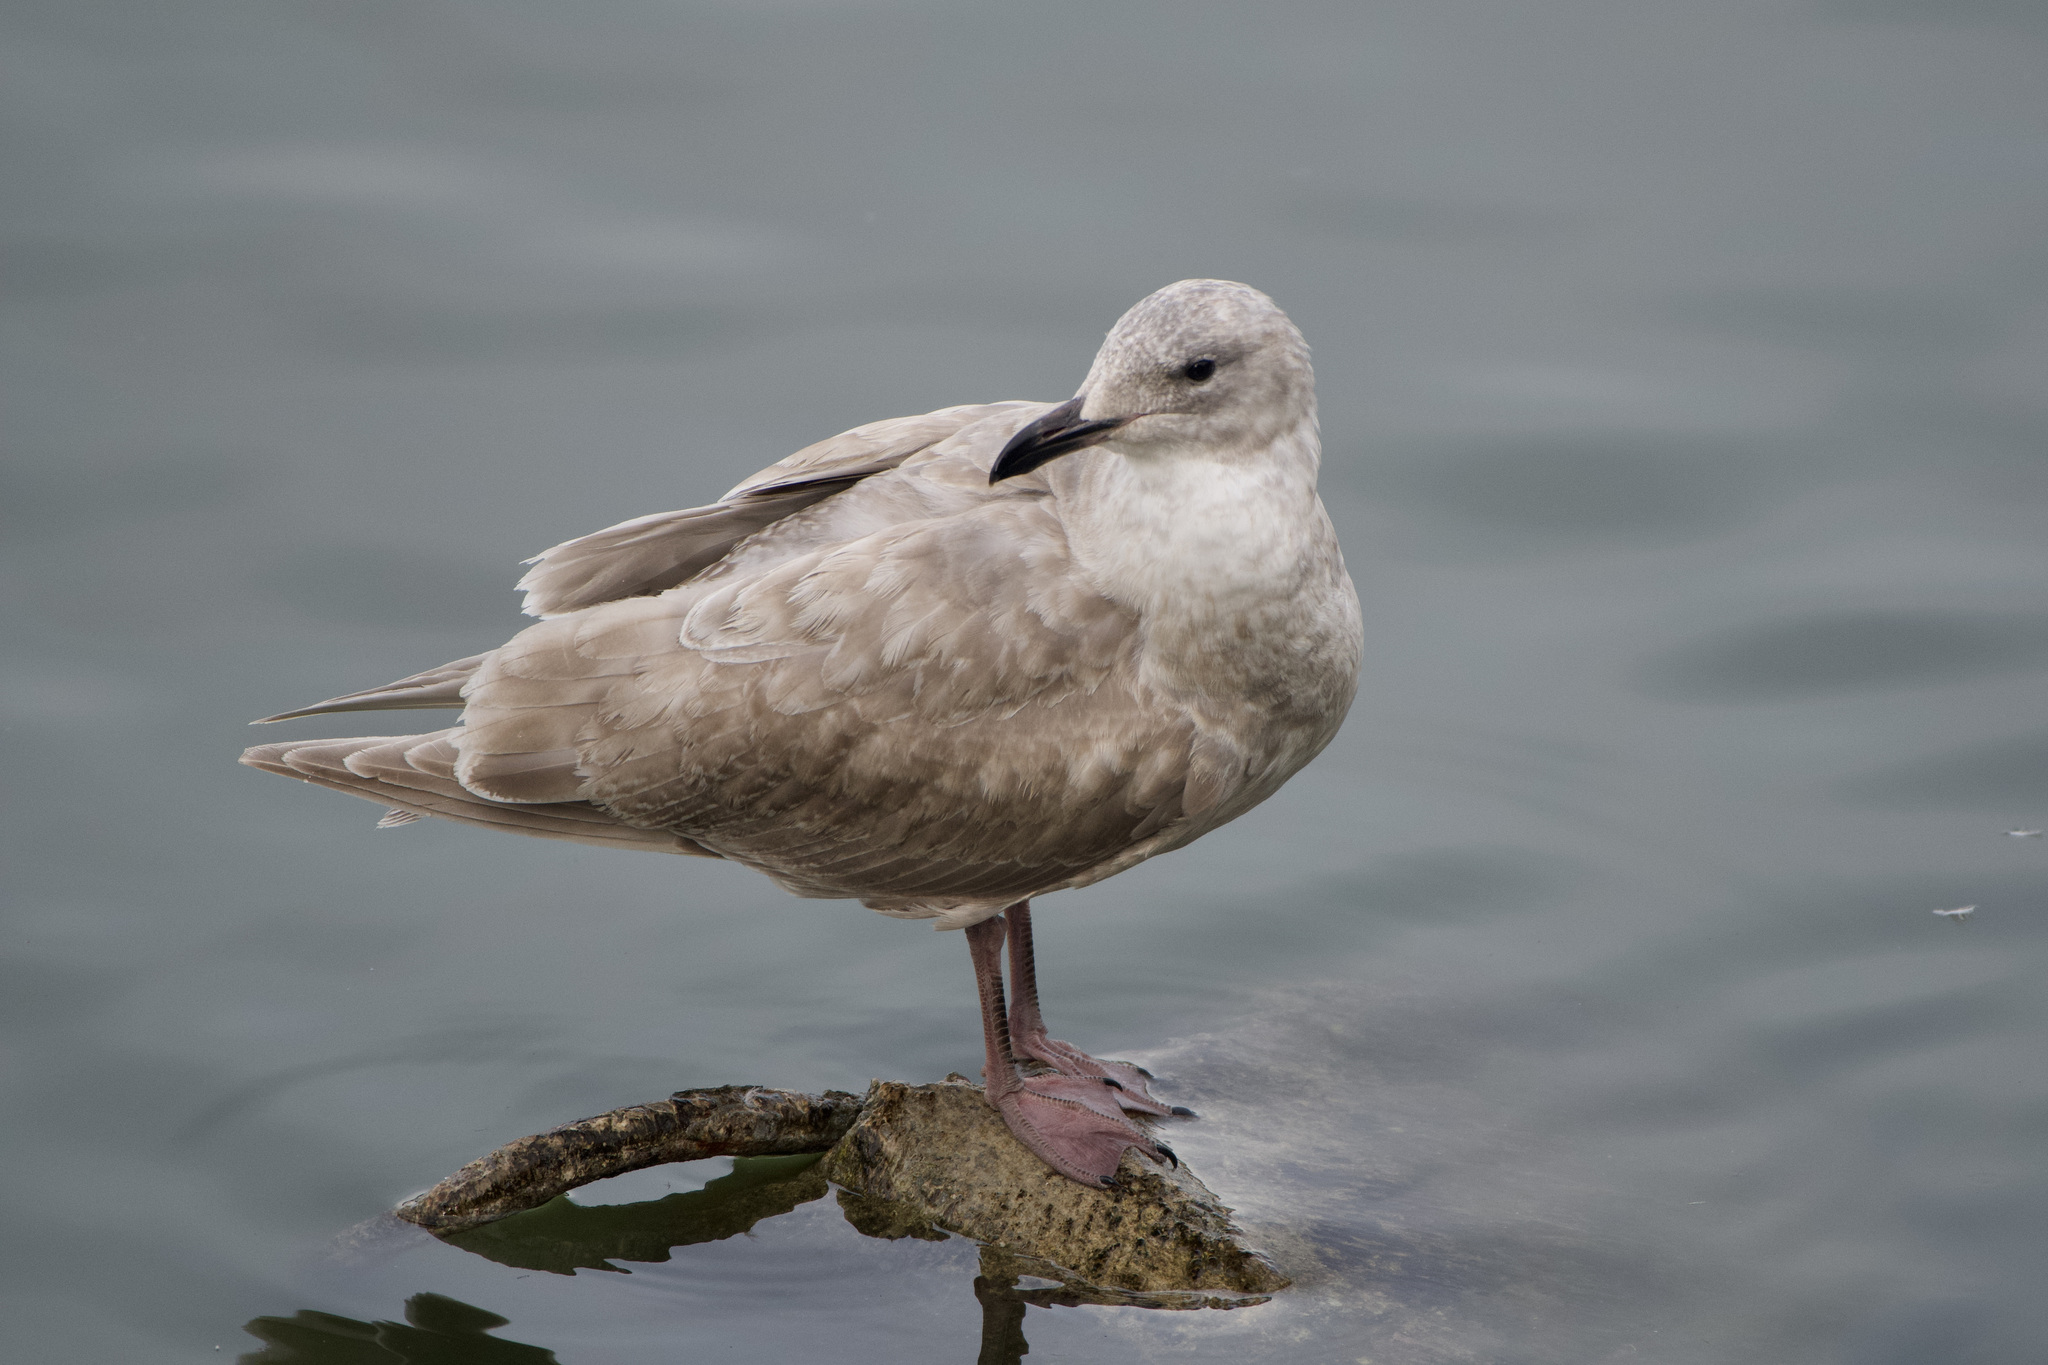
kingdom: Animalia
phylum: Chordata
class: Aves
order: Charadriiformes
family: Laridae
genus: Larus
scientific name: Larus glaucescens
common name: Glaucous-winged gull
